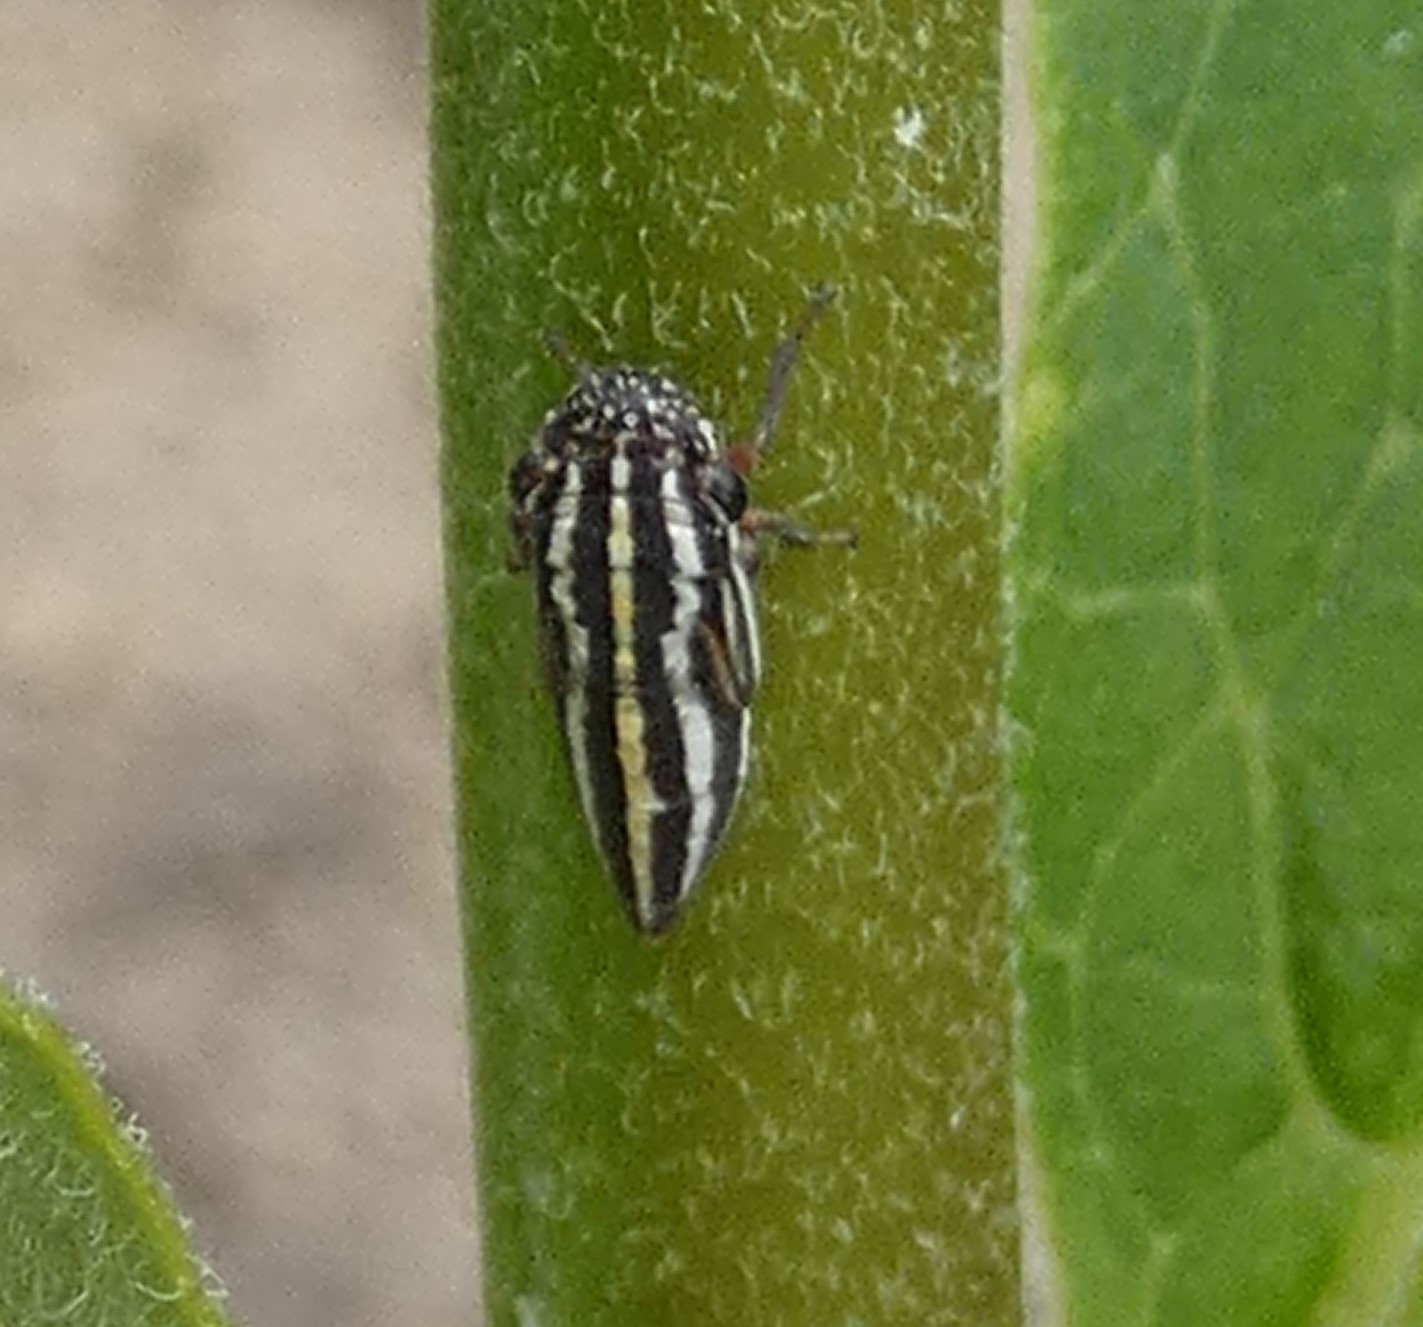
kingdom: Animalia
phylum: Arthropoda
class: Insecta
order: Hemiptera
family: Cicadellidae
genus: Cuerna
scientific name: Cuerna costalis
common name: Lateral-lined sharpshooter
